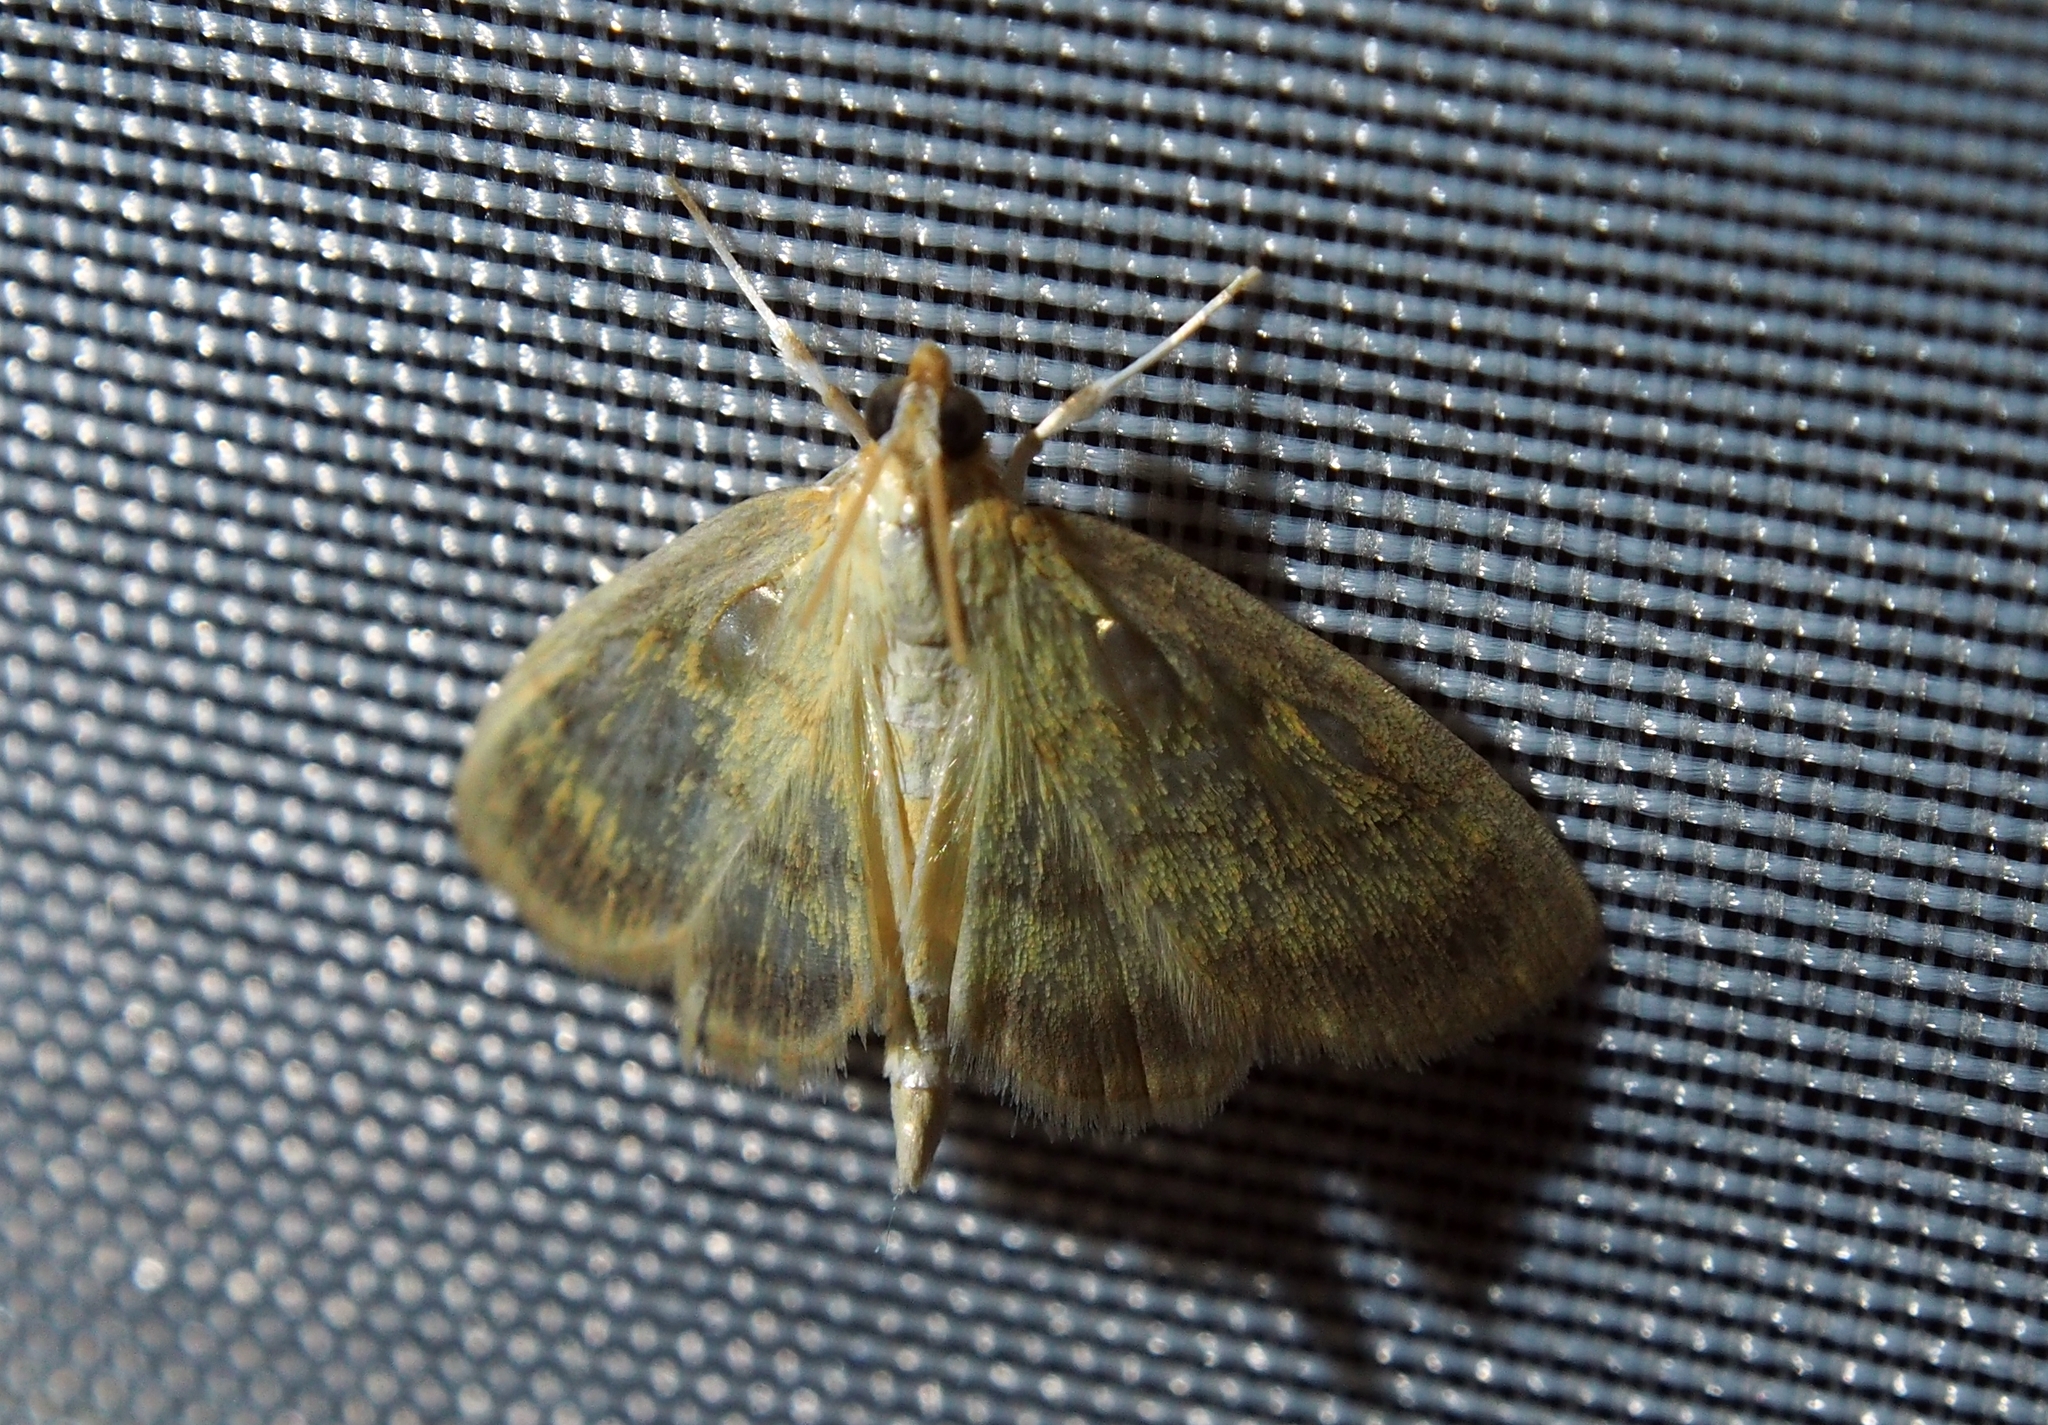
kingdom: Animalia
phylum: Arthropoda
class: Insecta
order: Lepidoptera
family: Crambidae
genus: Crocidophora
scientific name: Crocidophora tuberculalis
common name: Pale-winged crocidiphora moth
